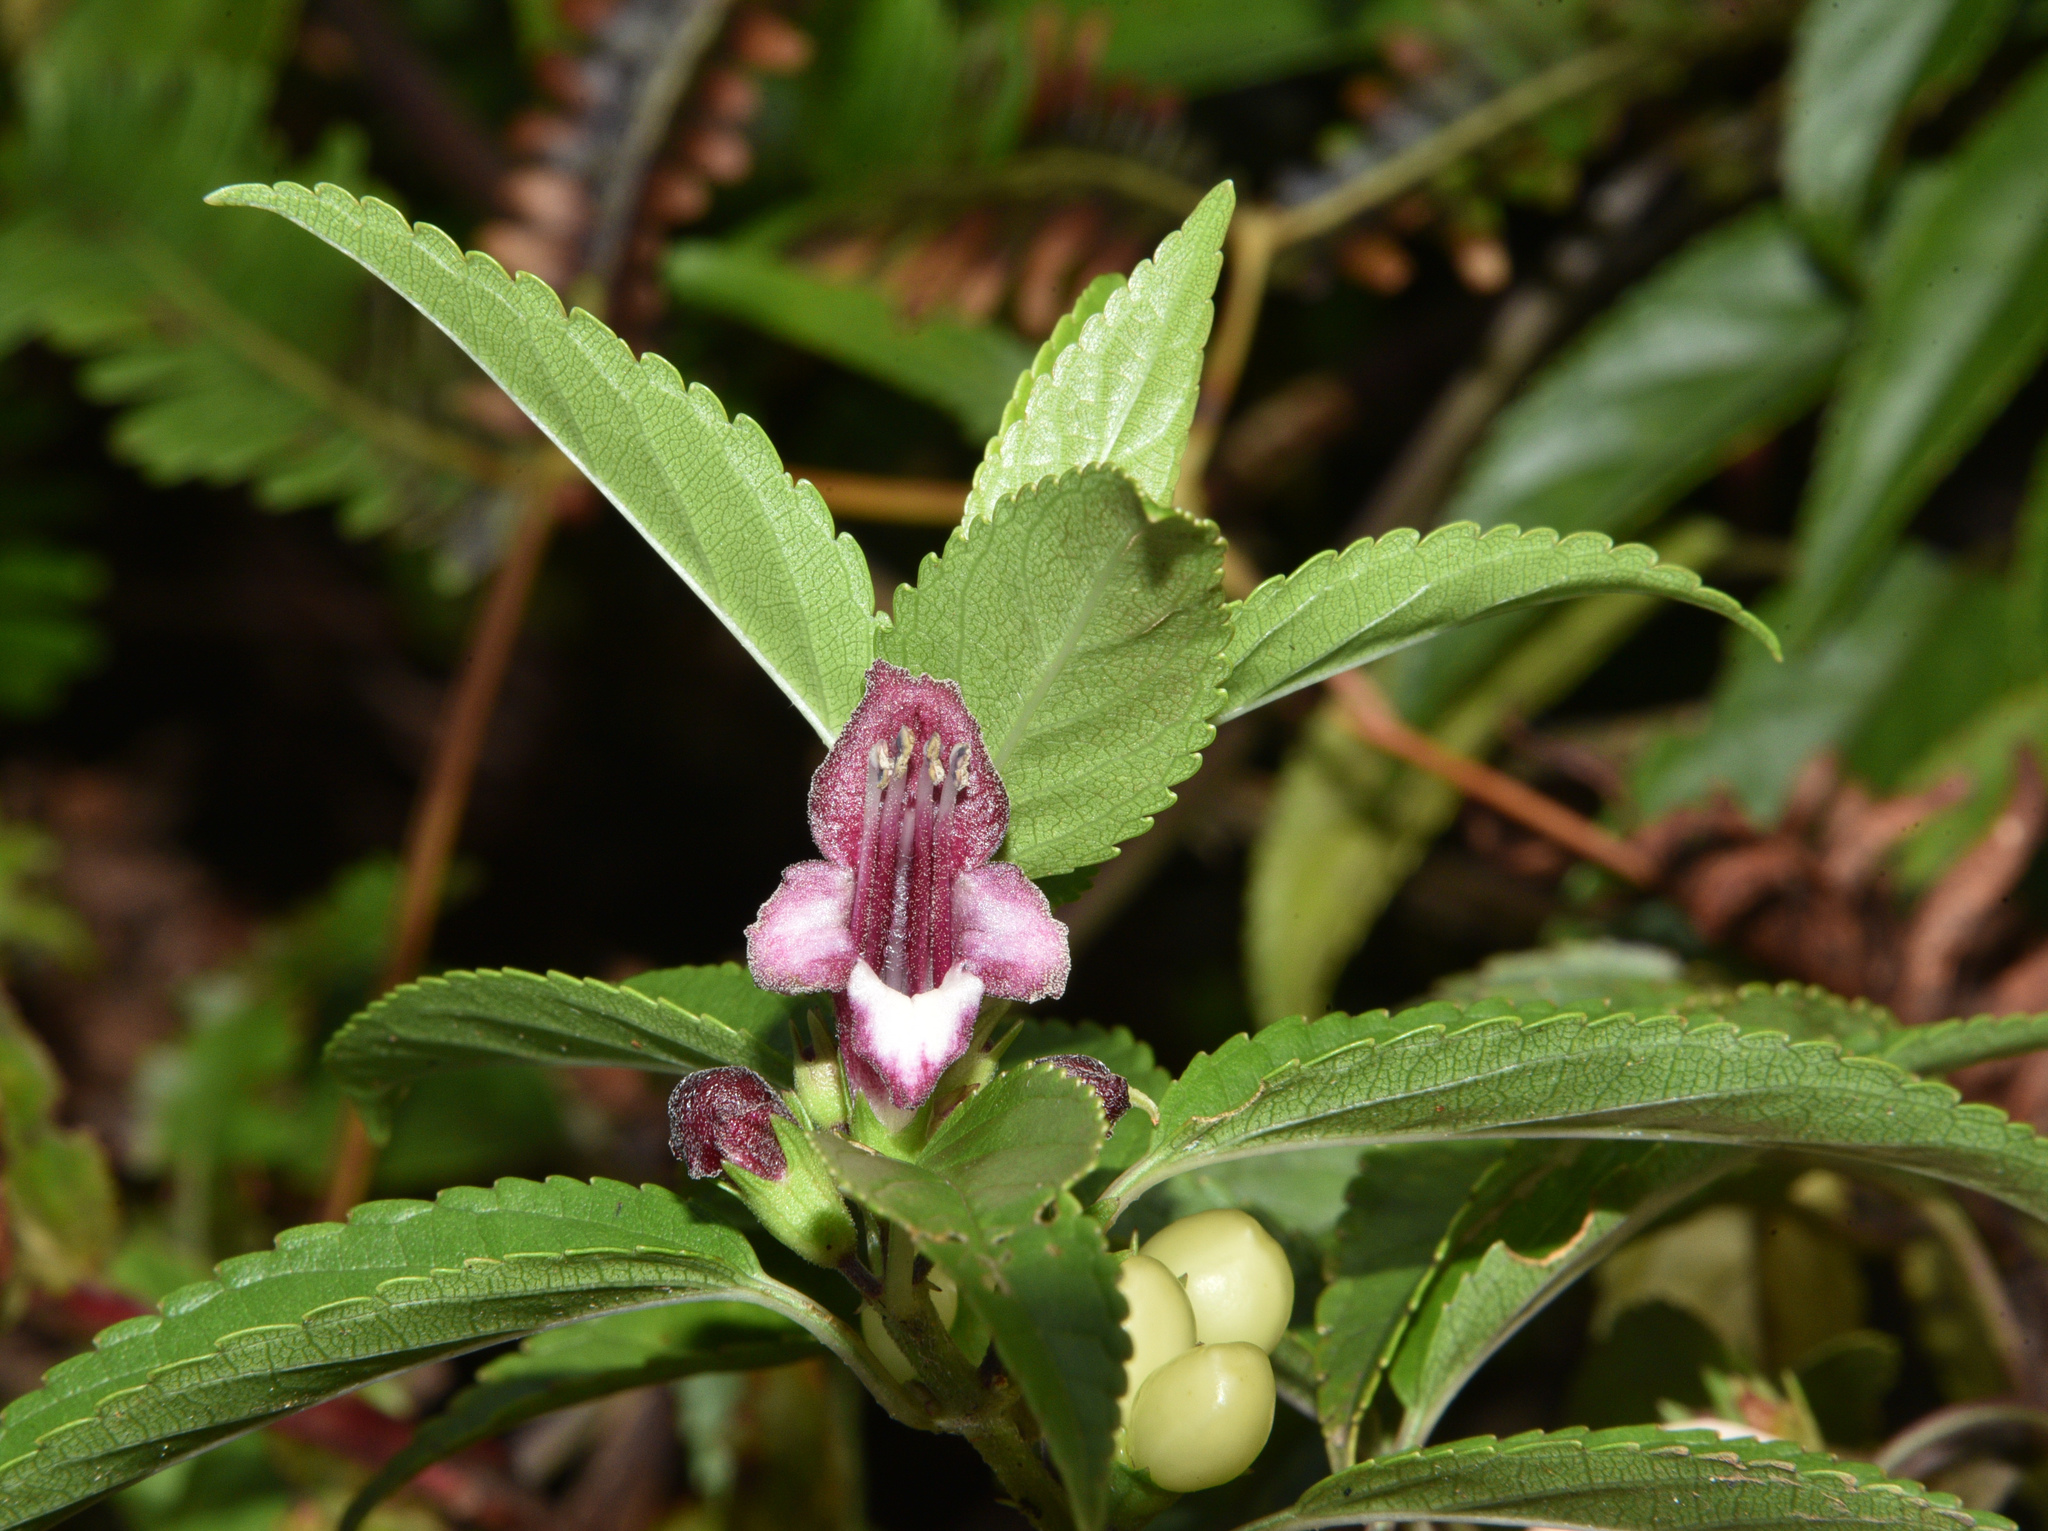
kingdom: Plantae
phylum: Tracheophyta
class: Magnoliopsida
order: Lamiales
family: Lamiaceae
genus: Stenogyne
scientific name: Stenogyne purpurea
